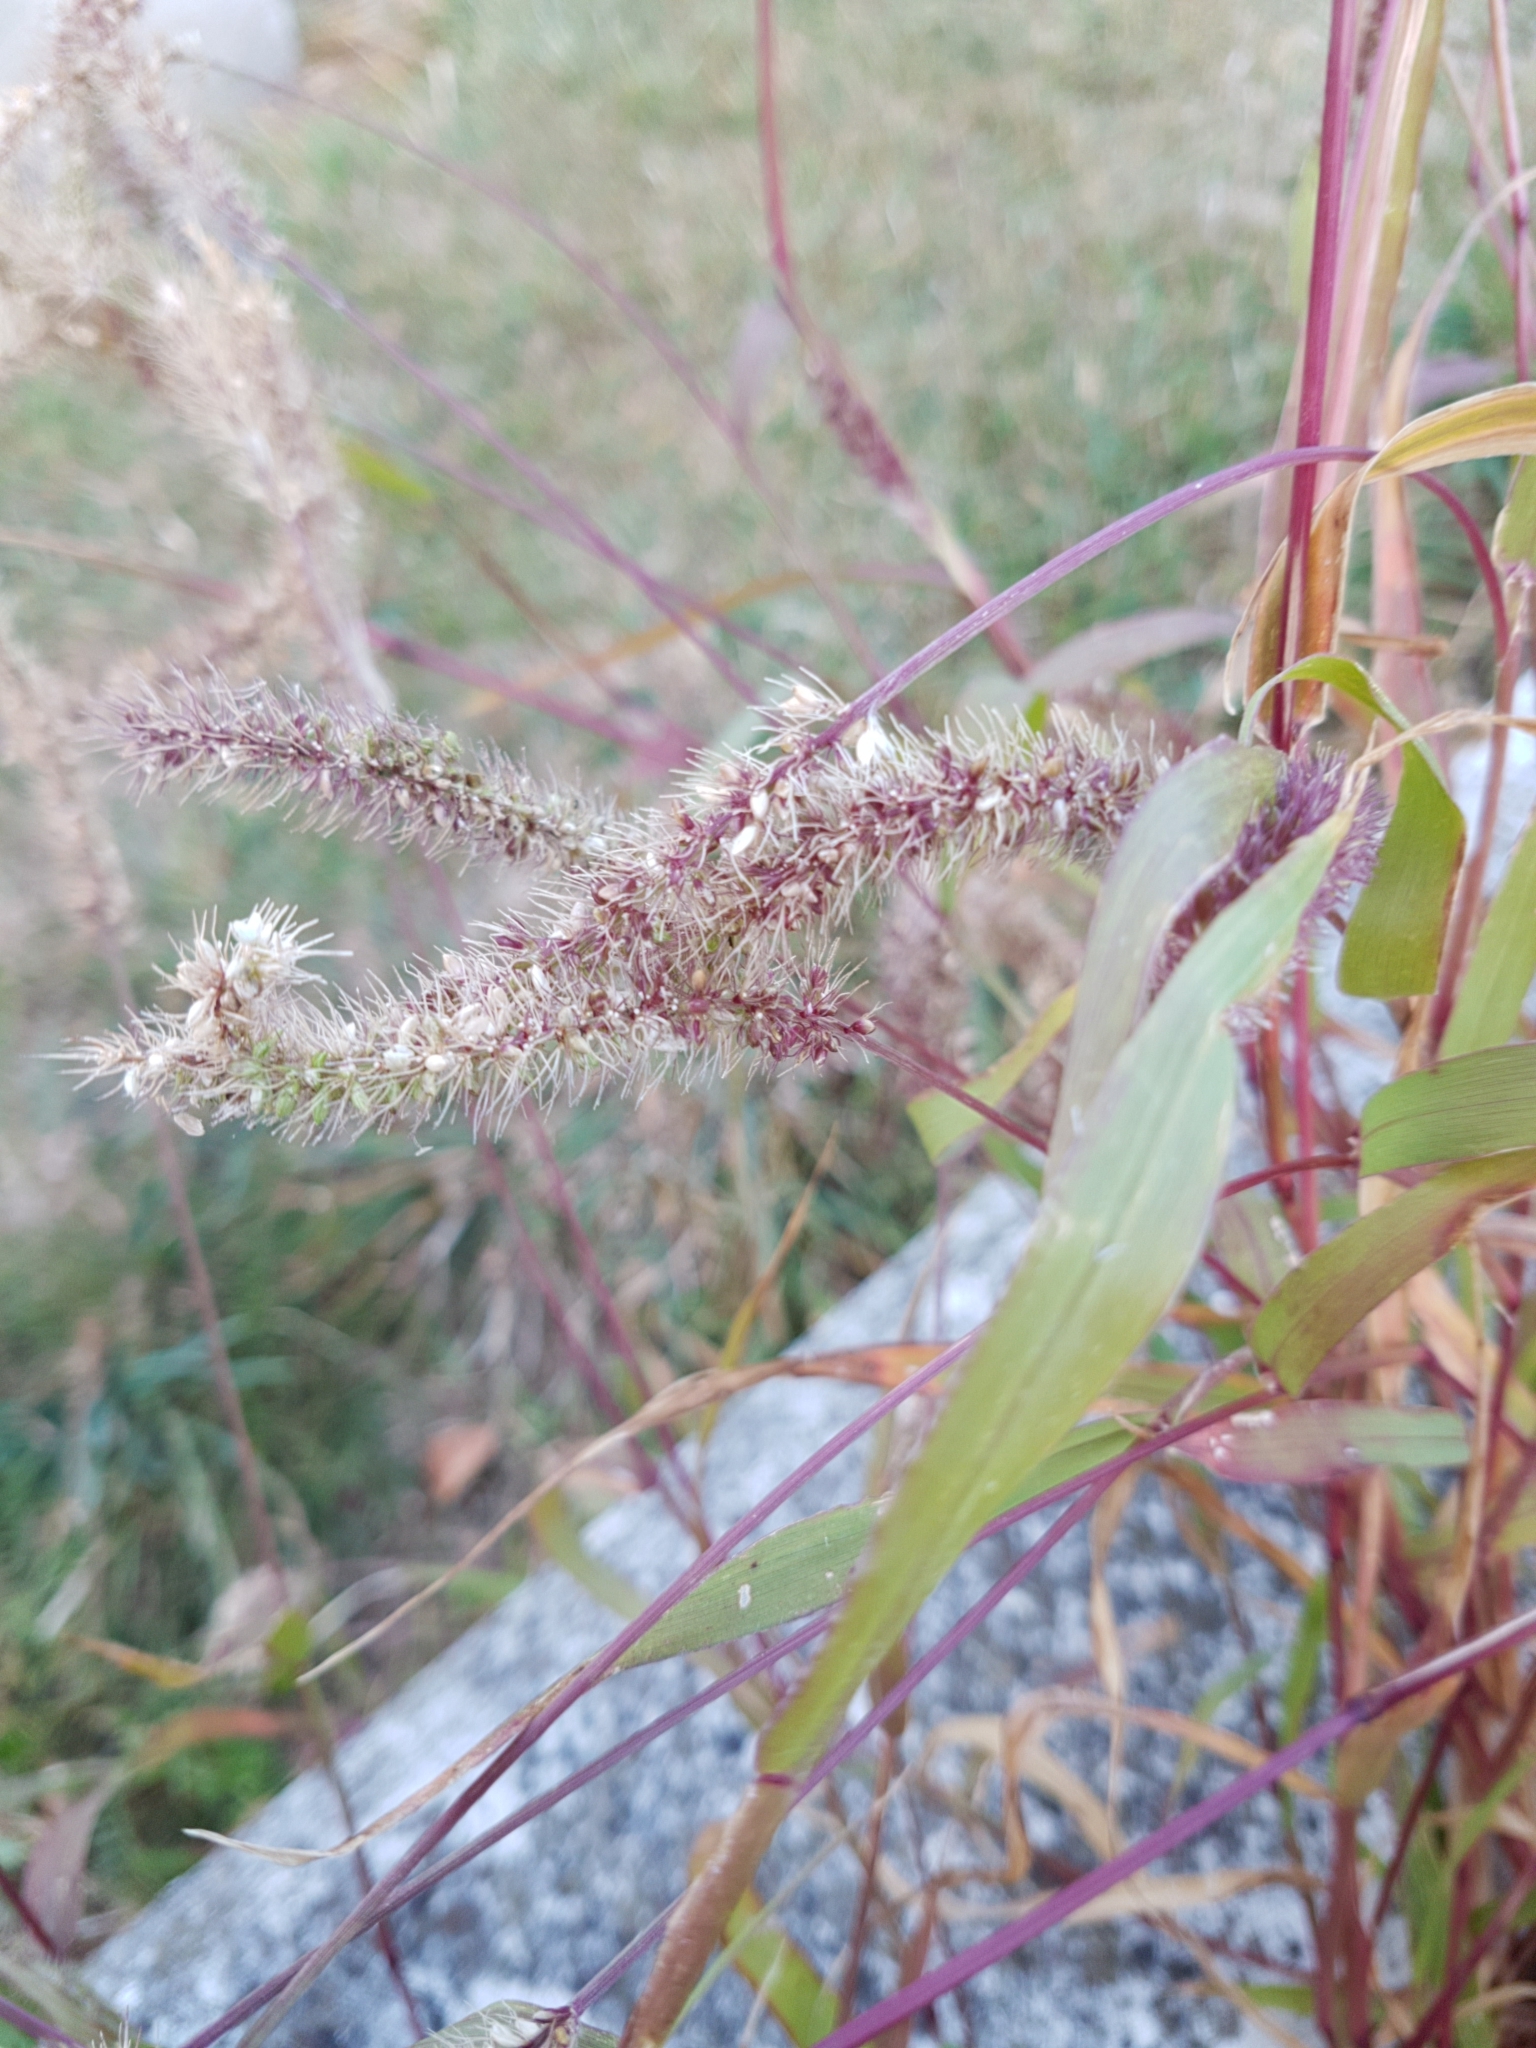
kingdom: Plantae
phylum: Tracheophyta
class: Liliopsida
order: Poales
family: Poaceae
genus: Setaria
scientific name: Setaria verticillata
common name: Hooked bristlegrass
